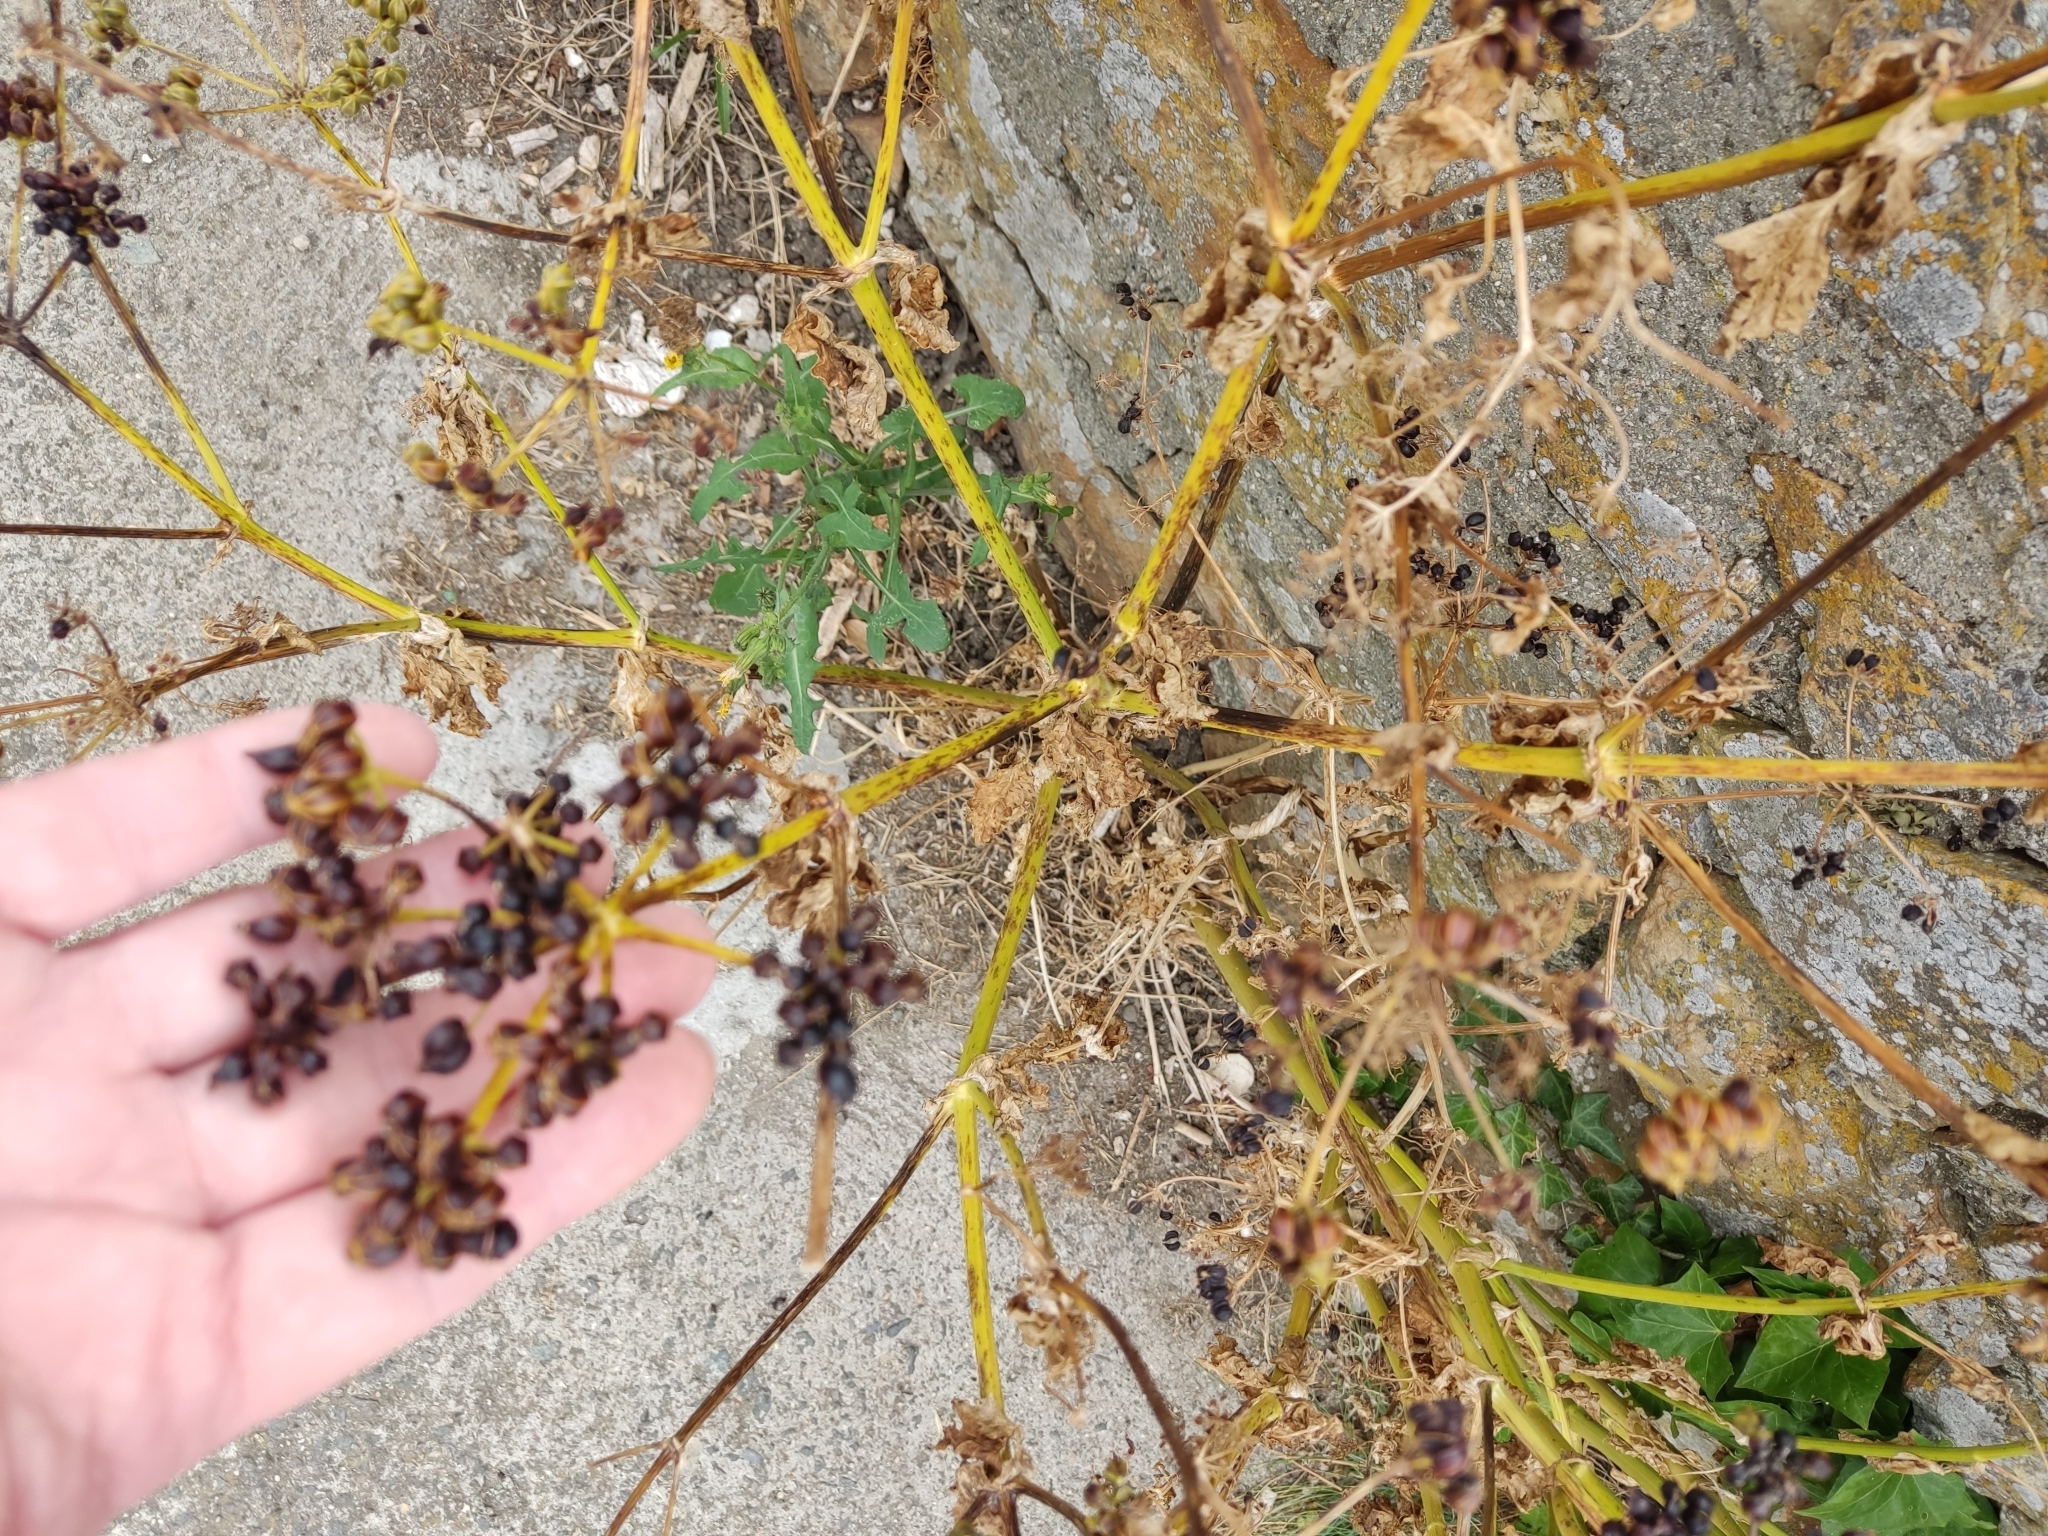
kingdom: Plantae
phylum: Tracheophyta
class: Magnoliopsida
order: Apiales
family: Apiaceae
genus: Smyrnium
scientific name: Smyrnium olusatrum
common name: Alexanders
